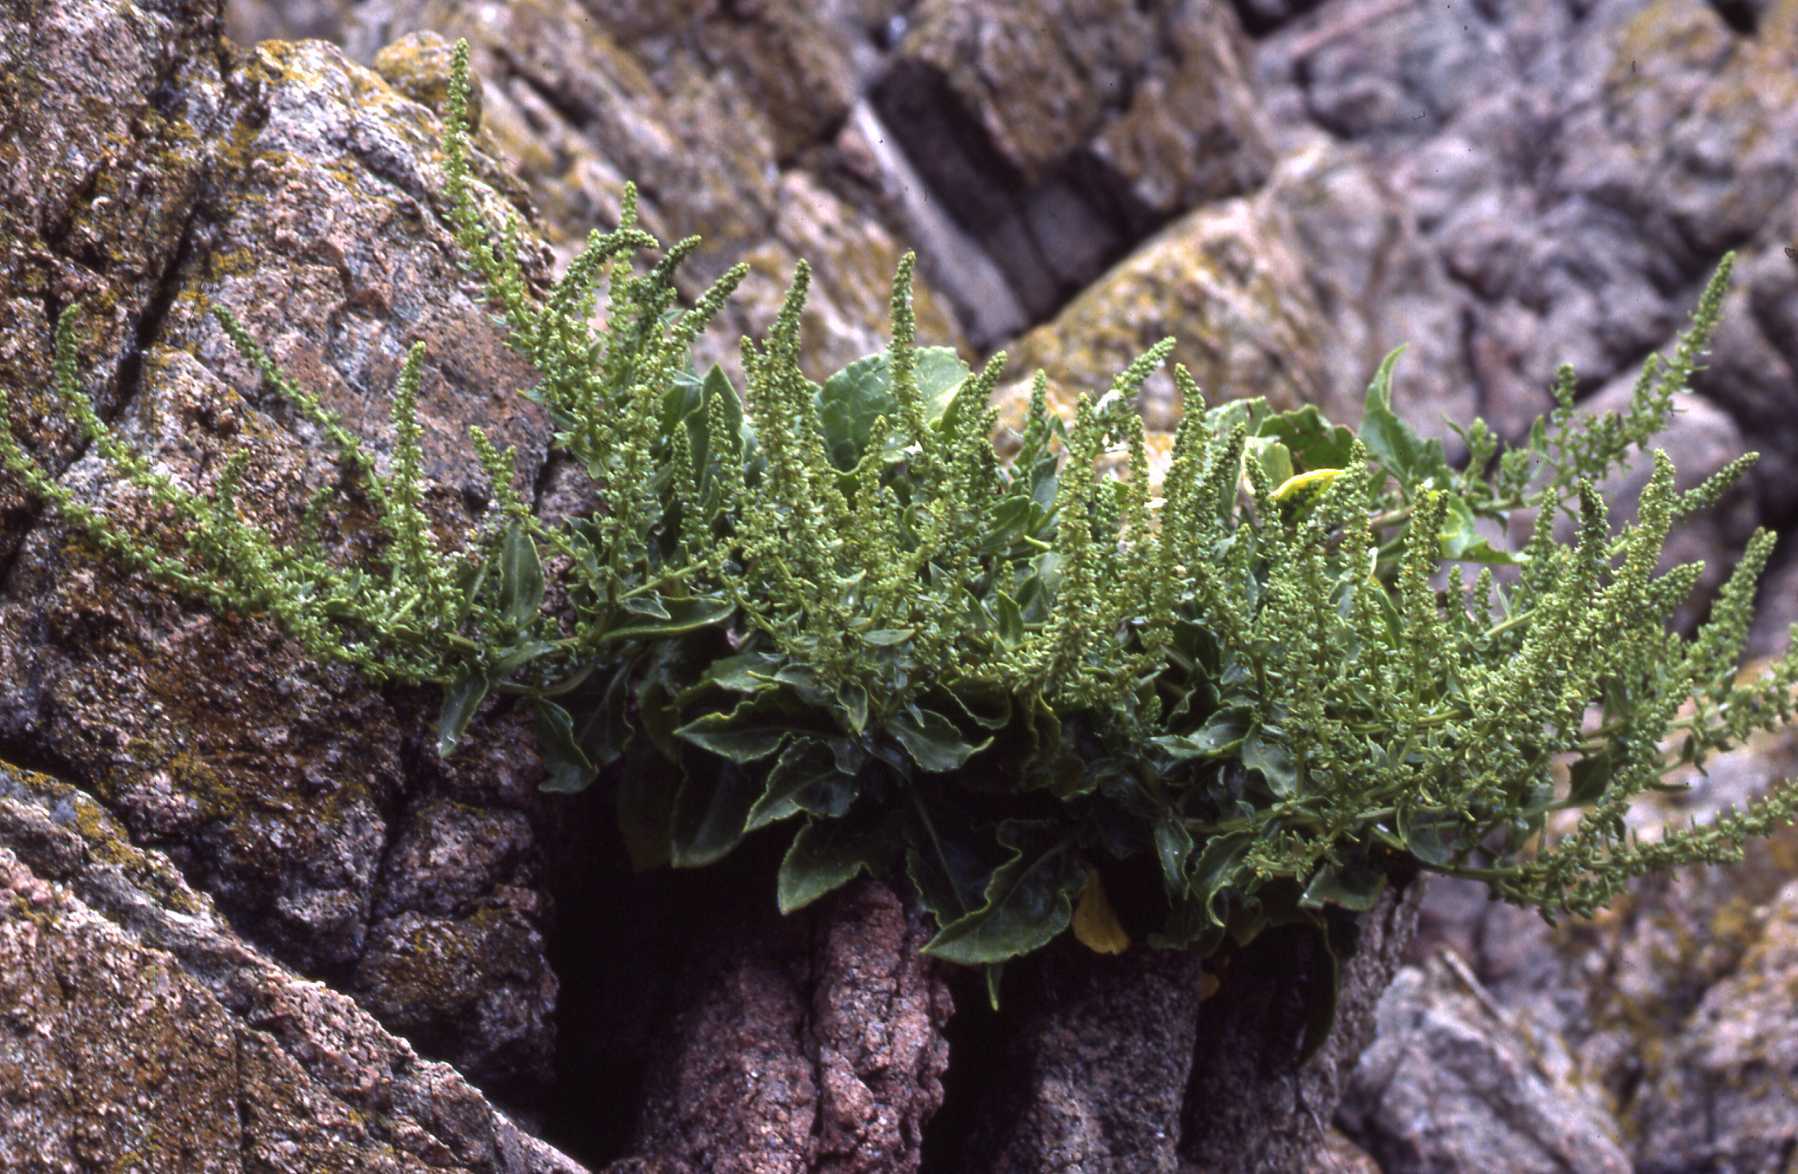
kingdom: Plantae
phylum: Tracheophyta
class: Magnoliopsida
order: Caryophyllales
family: Amaranthaceae
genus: Beta
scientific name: Beta vulgaris
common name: Beet
